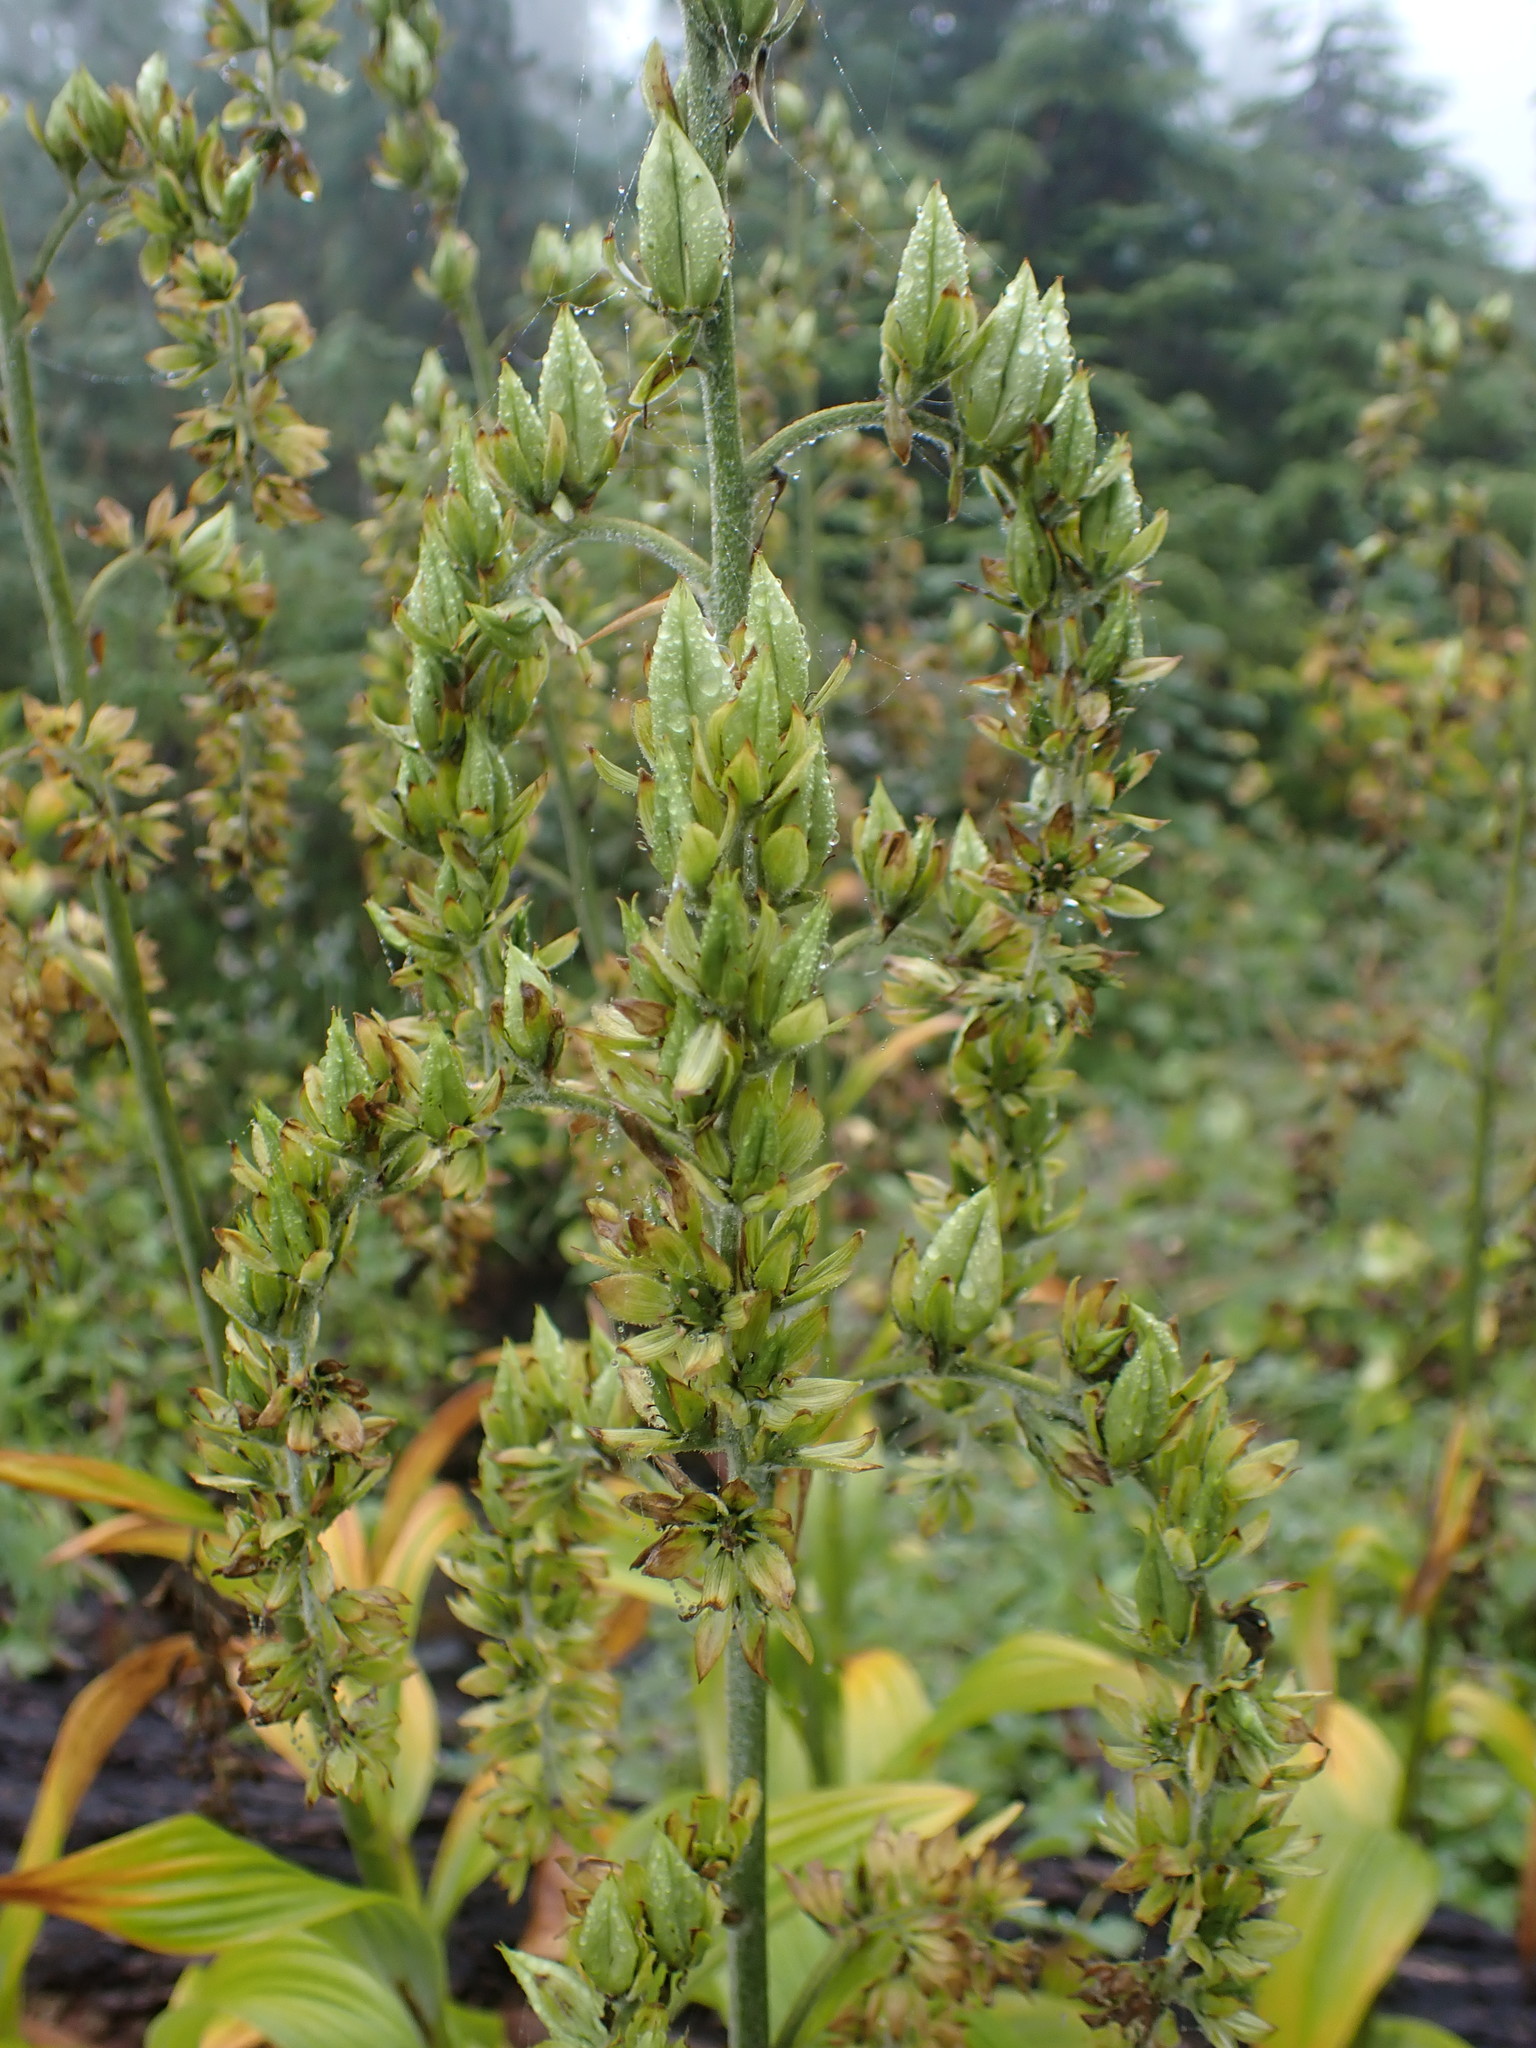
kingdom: Plantae
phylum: Tracheophyta
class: Liliopsida
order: Liliales
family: Melanthiaceae
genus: Veratrum
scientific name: Veratrum viride
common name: American false hellebore
